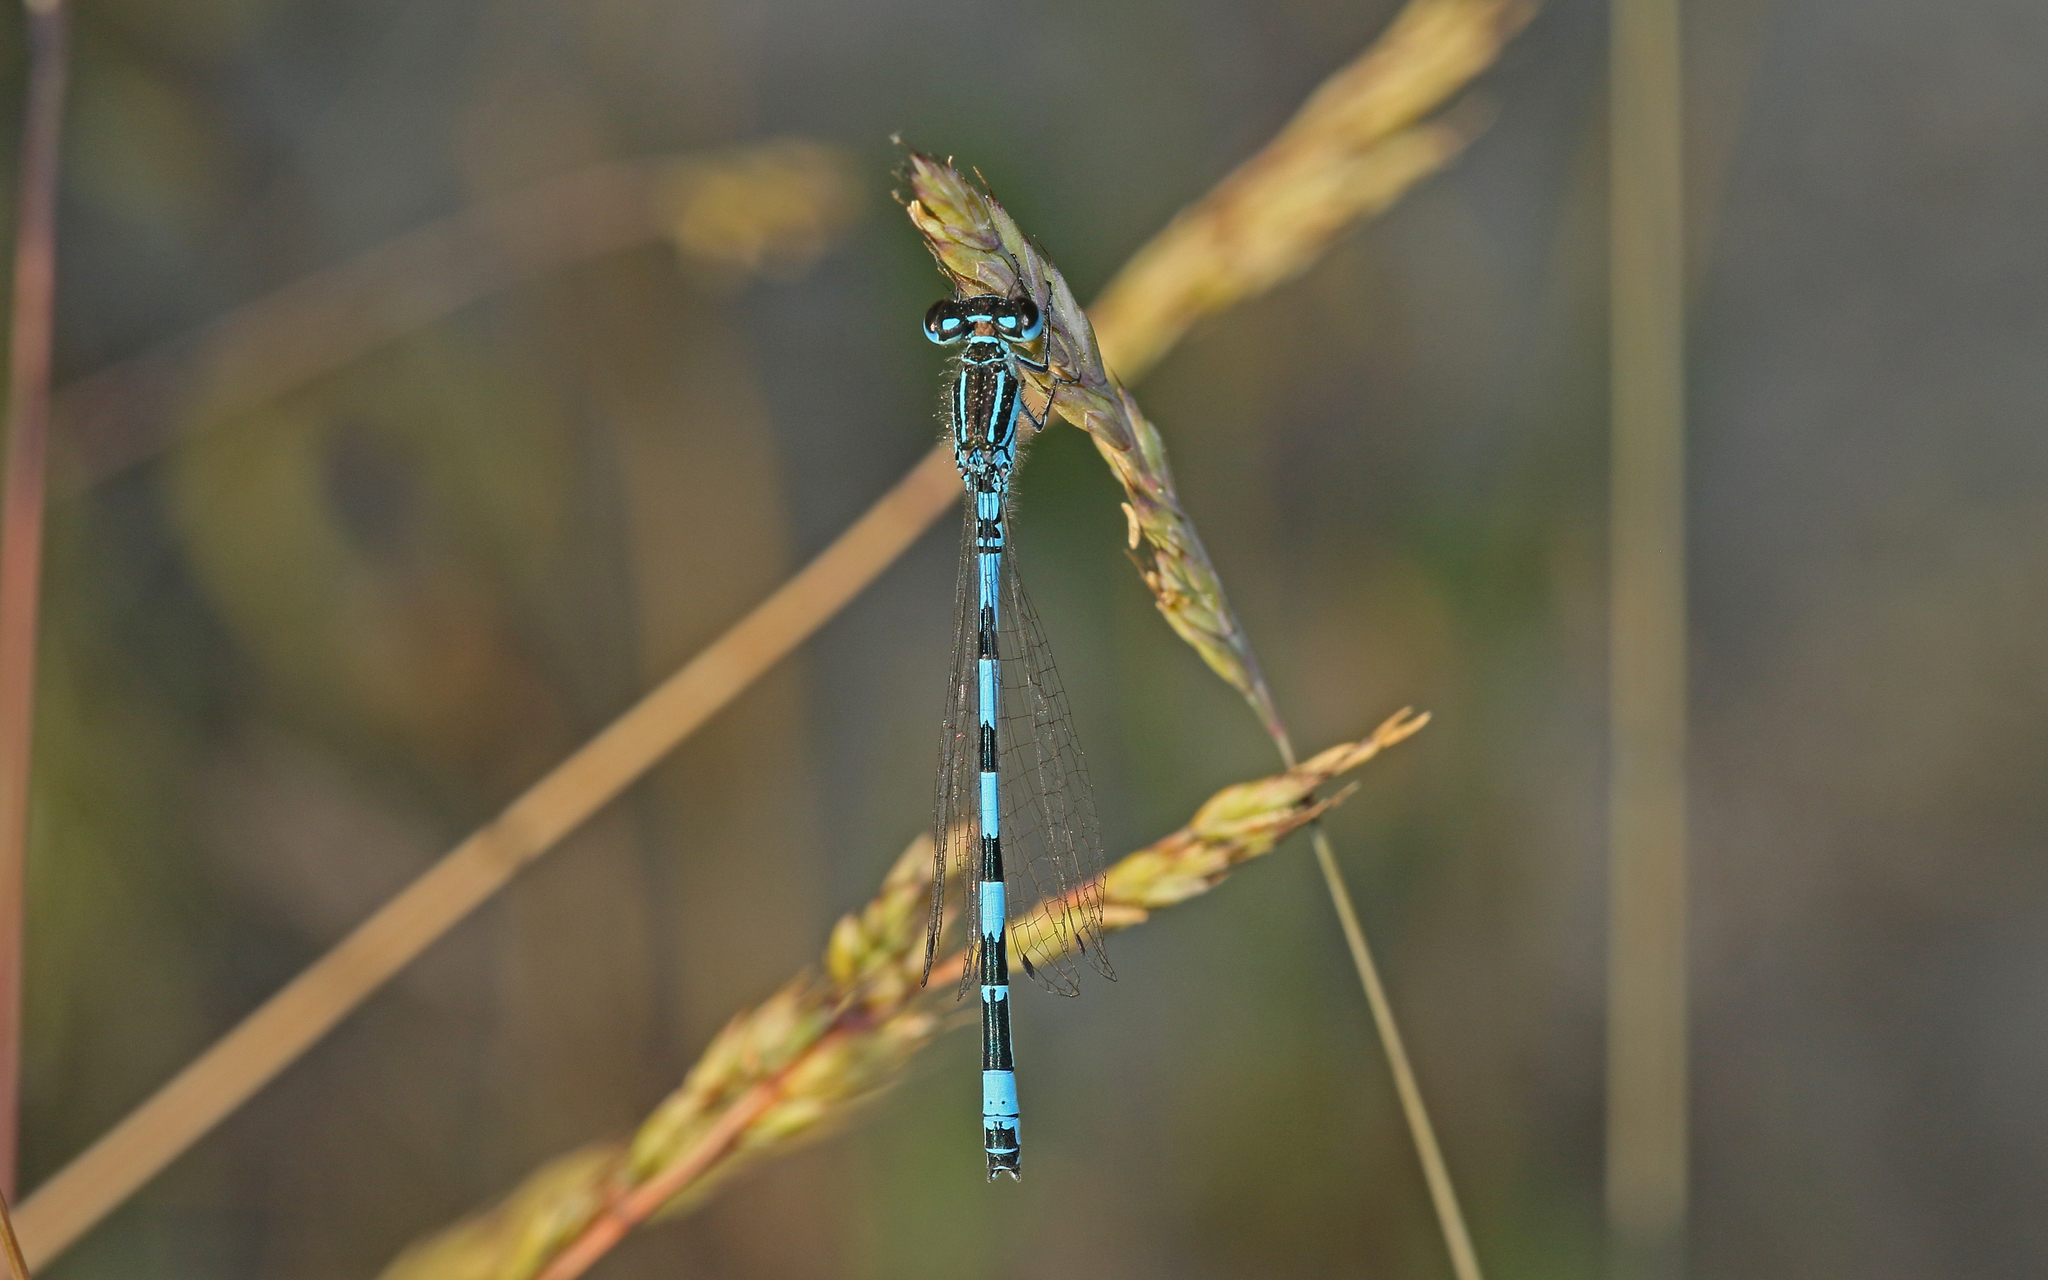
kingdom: Animalia
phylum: Arthropoda
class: Insecta
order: Odonata
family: Coenagrionidae
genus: Coenagrion
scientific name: Coenagrion mercuriale
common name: Southern damselfly
